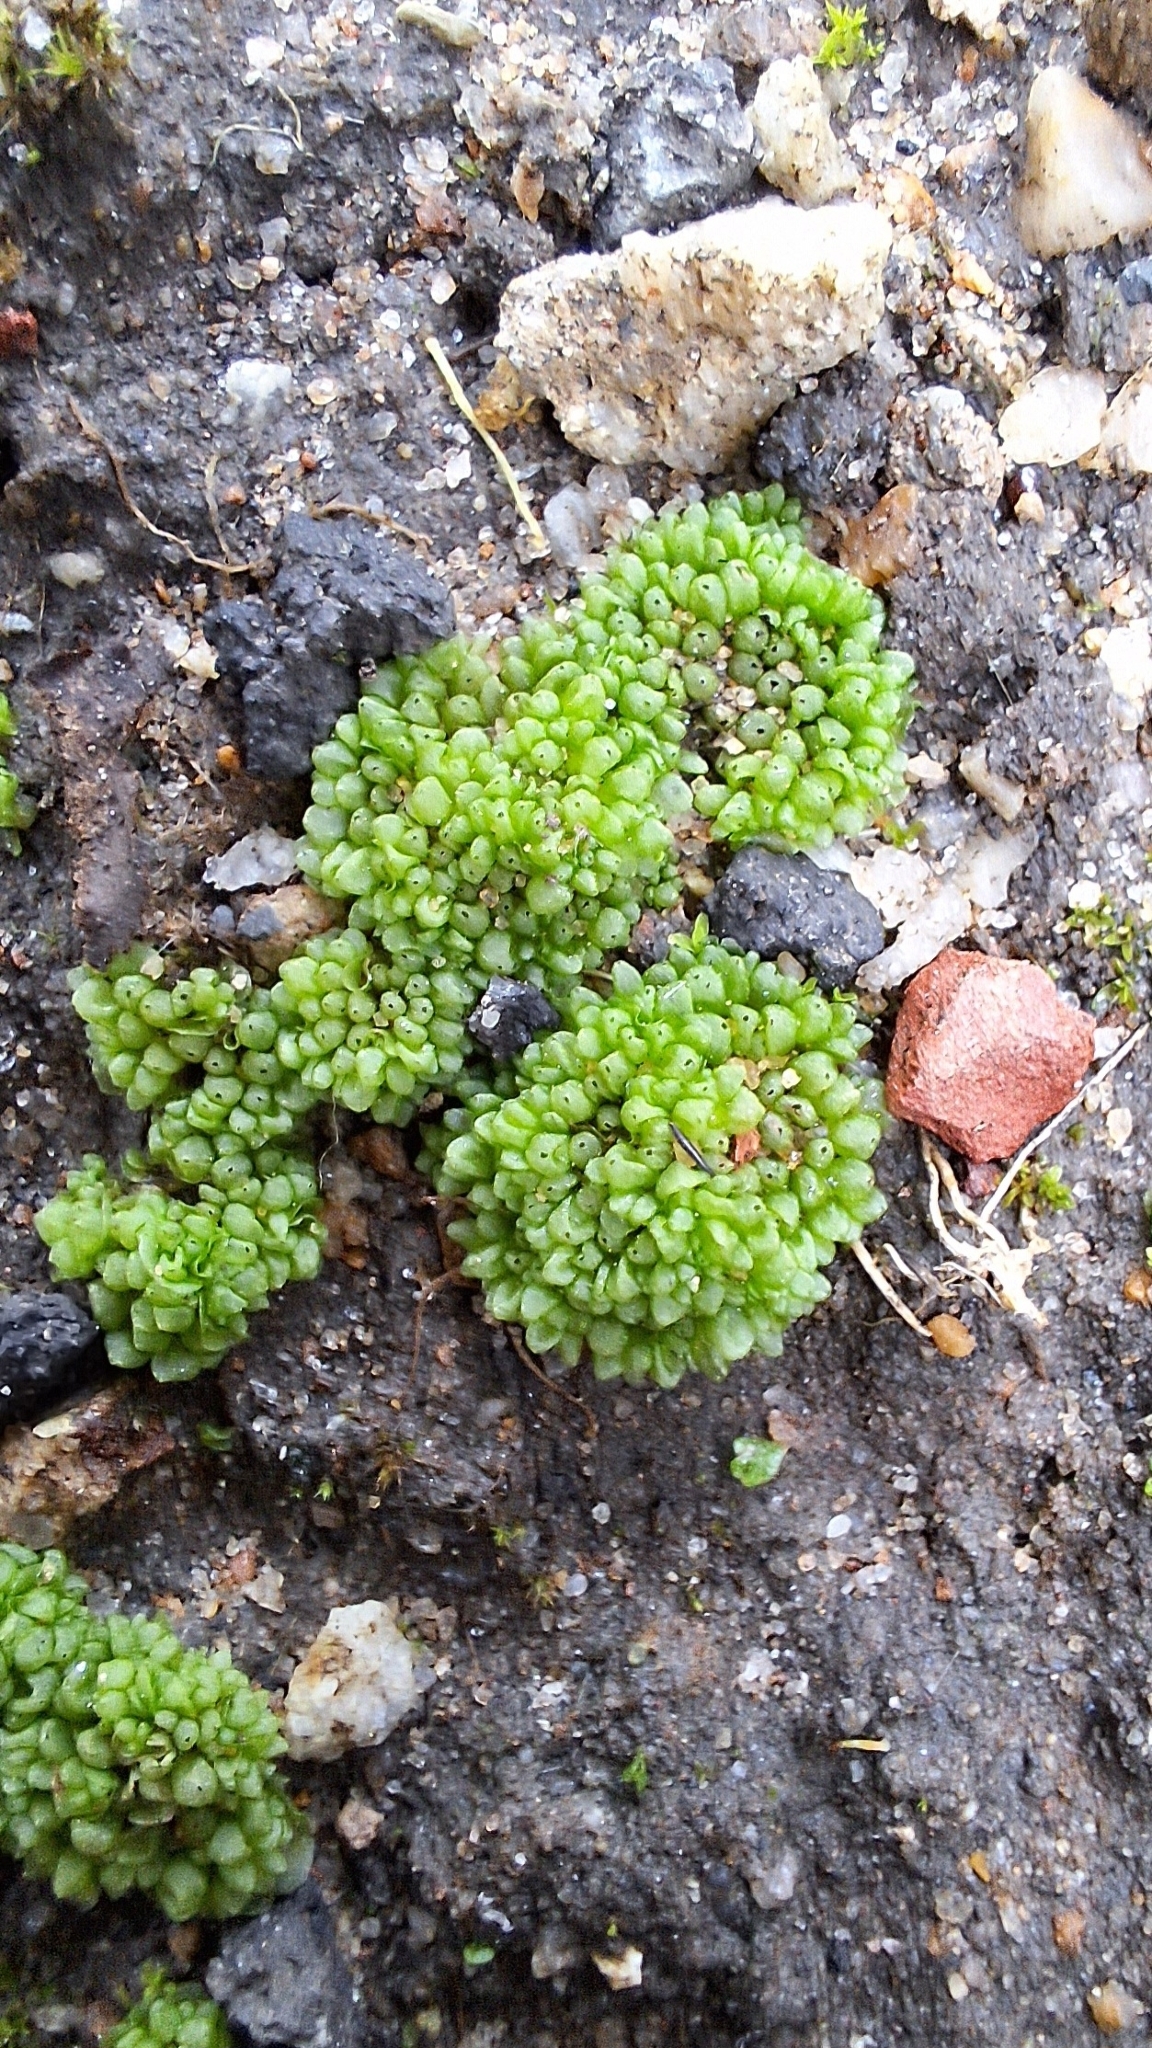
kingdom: Plantae
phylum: Marchantiophyta
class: Marchantiopsida
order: Sphaerocarpales
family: Sphaerocarpaceae
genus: Sphaerocarpos
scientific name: Sphaerocarpos texanus
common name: Texas balloonwort
